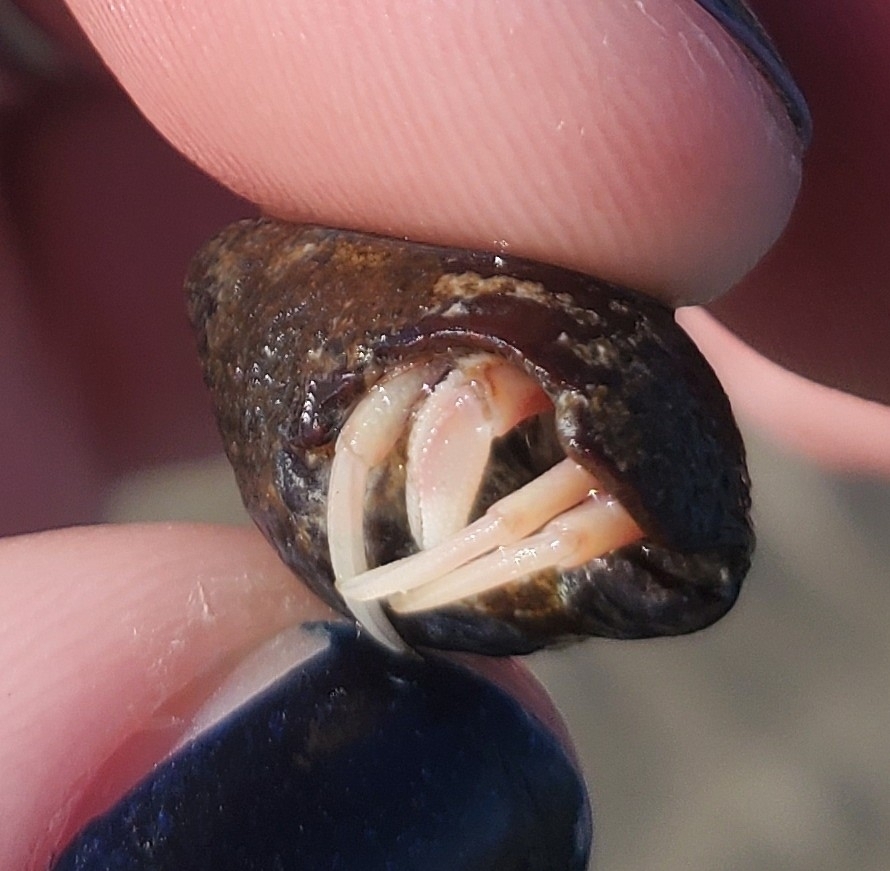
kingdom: Animalia
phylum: Arthropoda
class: Malacostraca
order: Decapoda
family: Paguridae
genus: Pagurus
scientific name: Pagurus longicarpus
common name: Long-armed hermit crab
